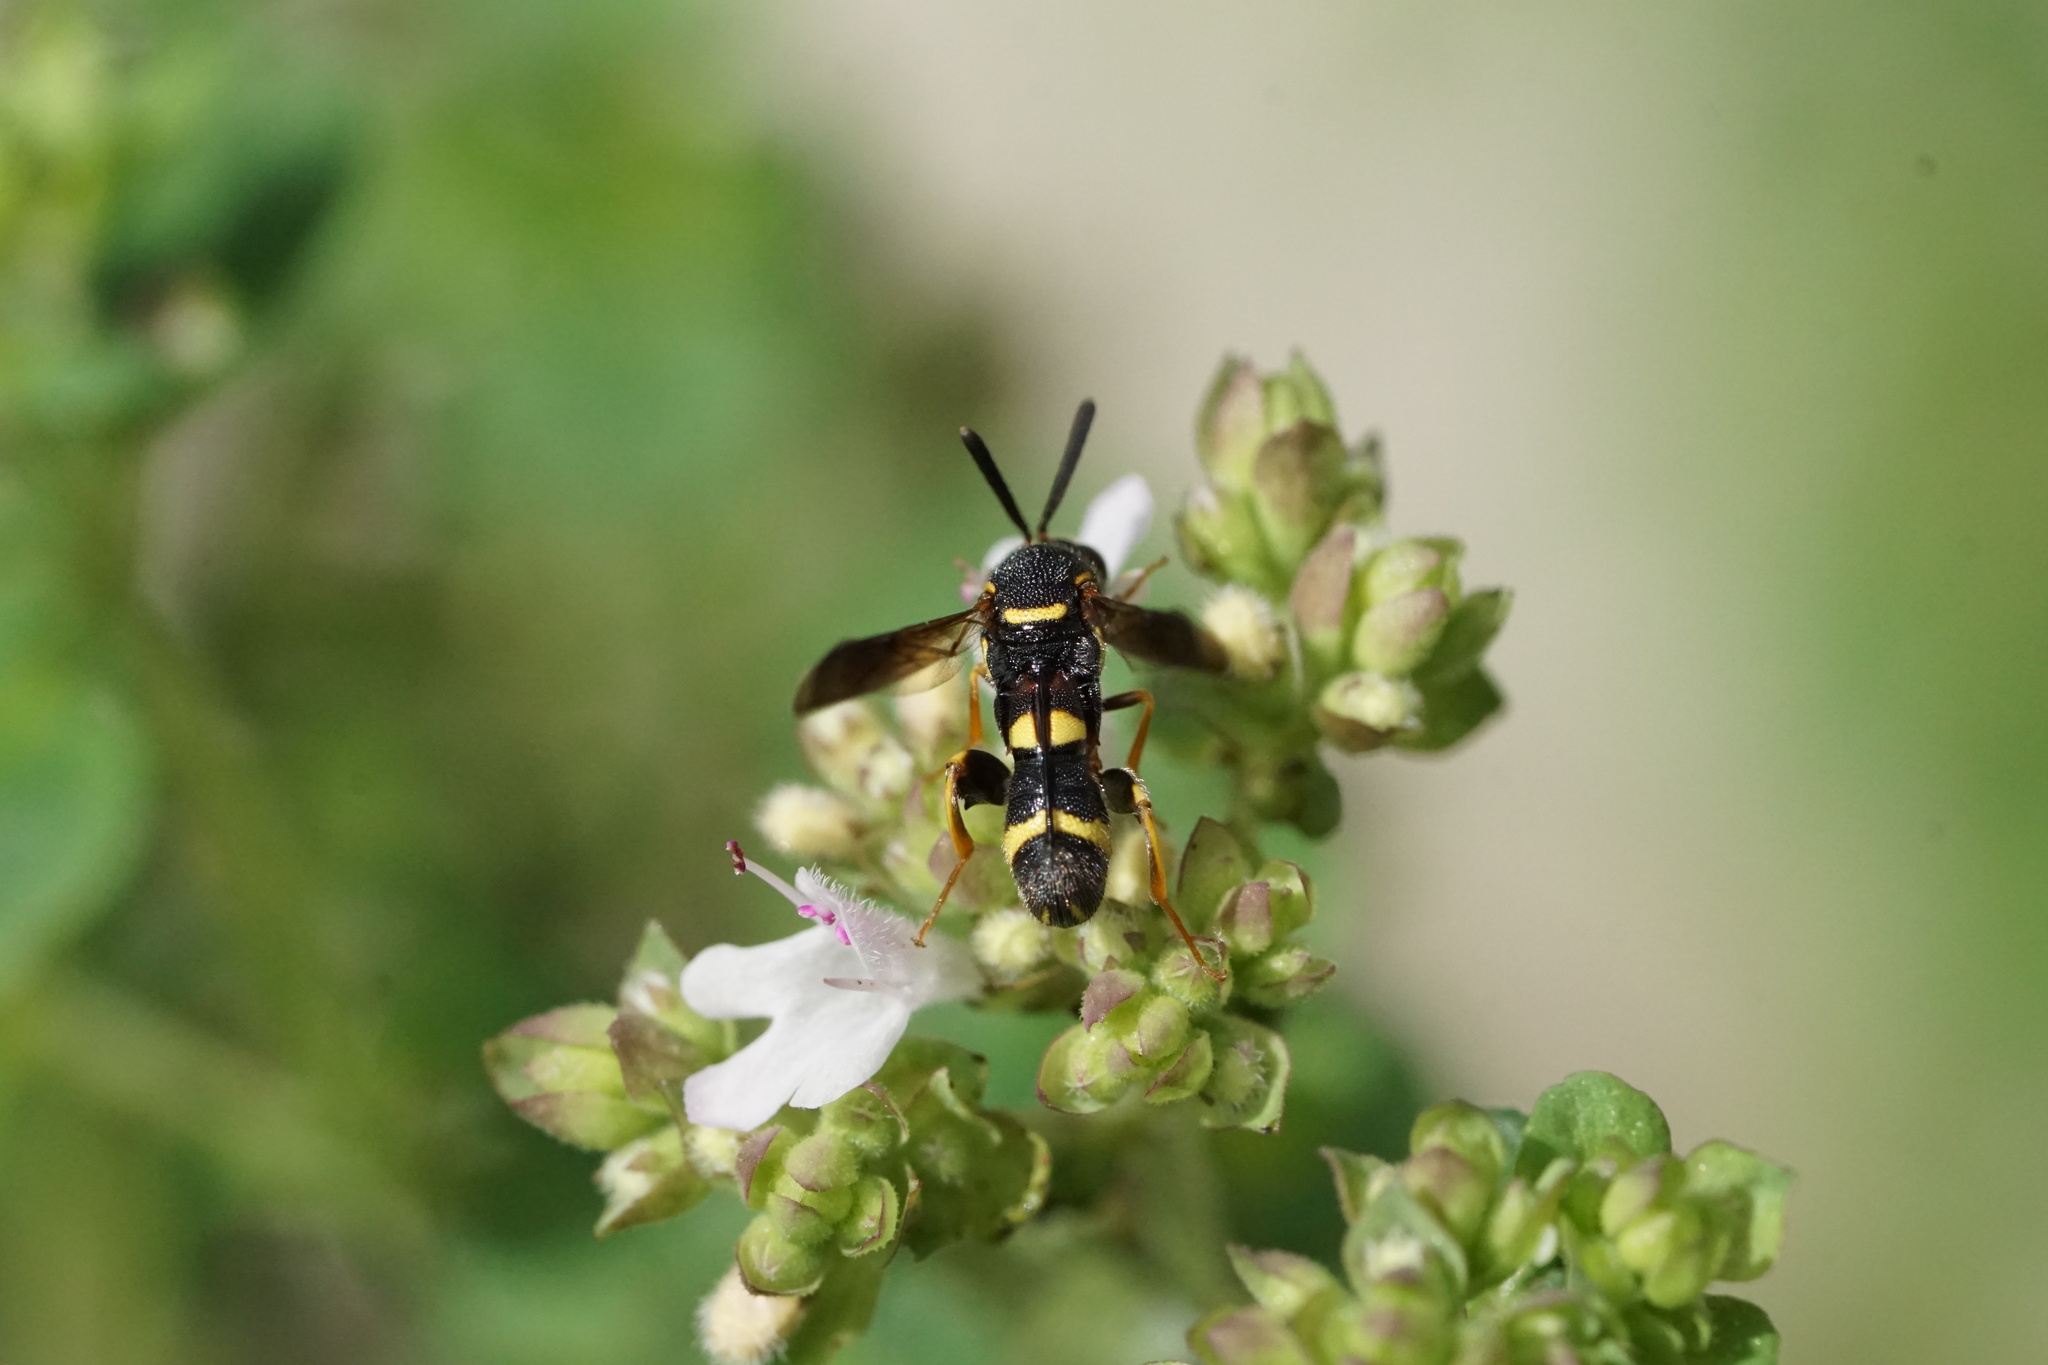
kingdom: Animalia
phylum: Arthropoda
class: Insecta
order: Hymenoptera
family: Leucospidae
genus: Leucospis
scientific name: Leucospis affinis
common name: Wasp
